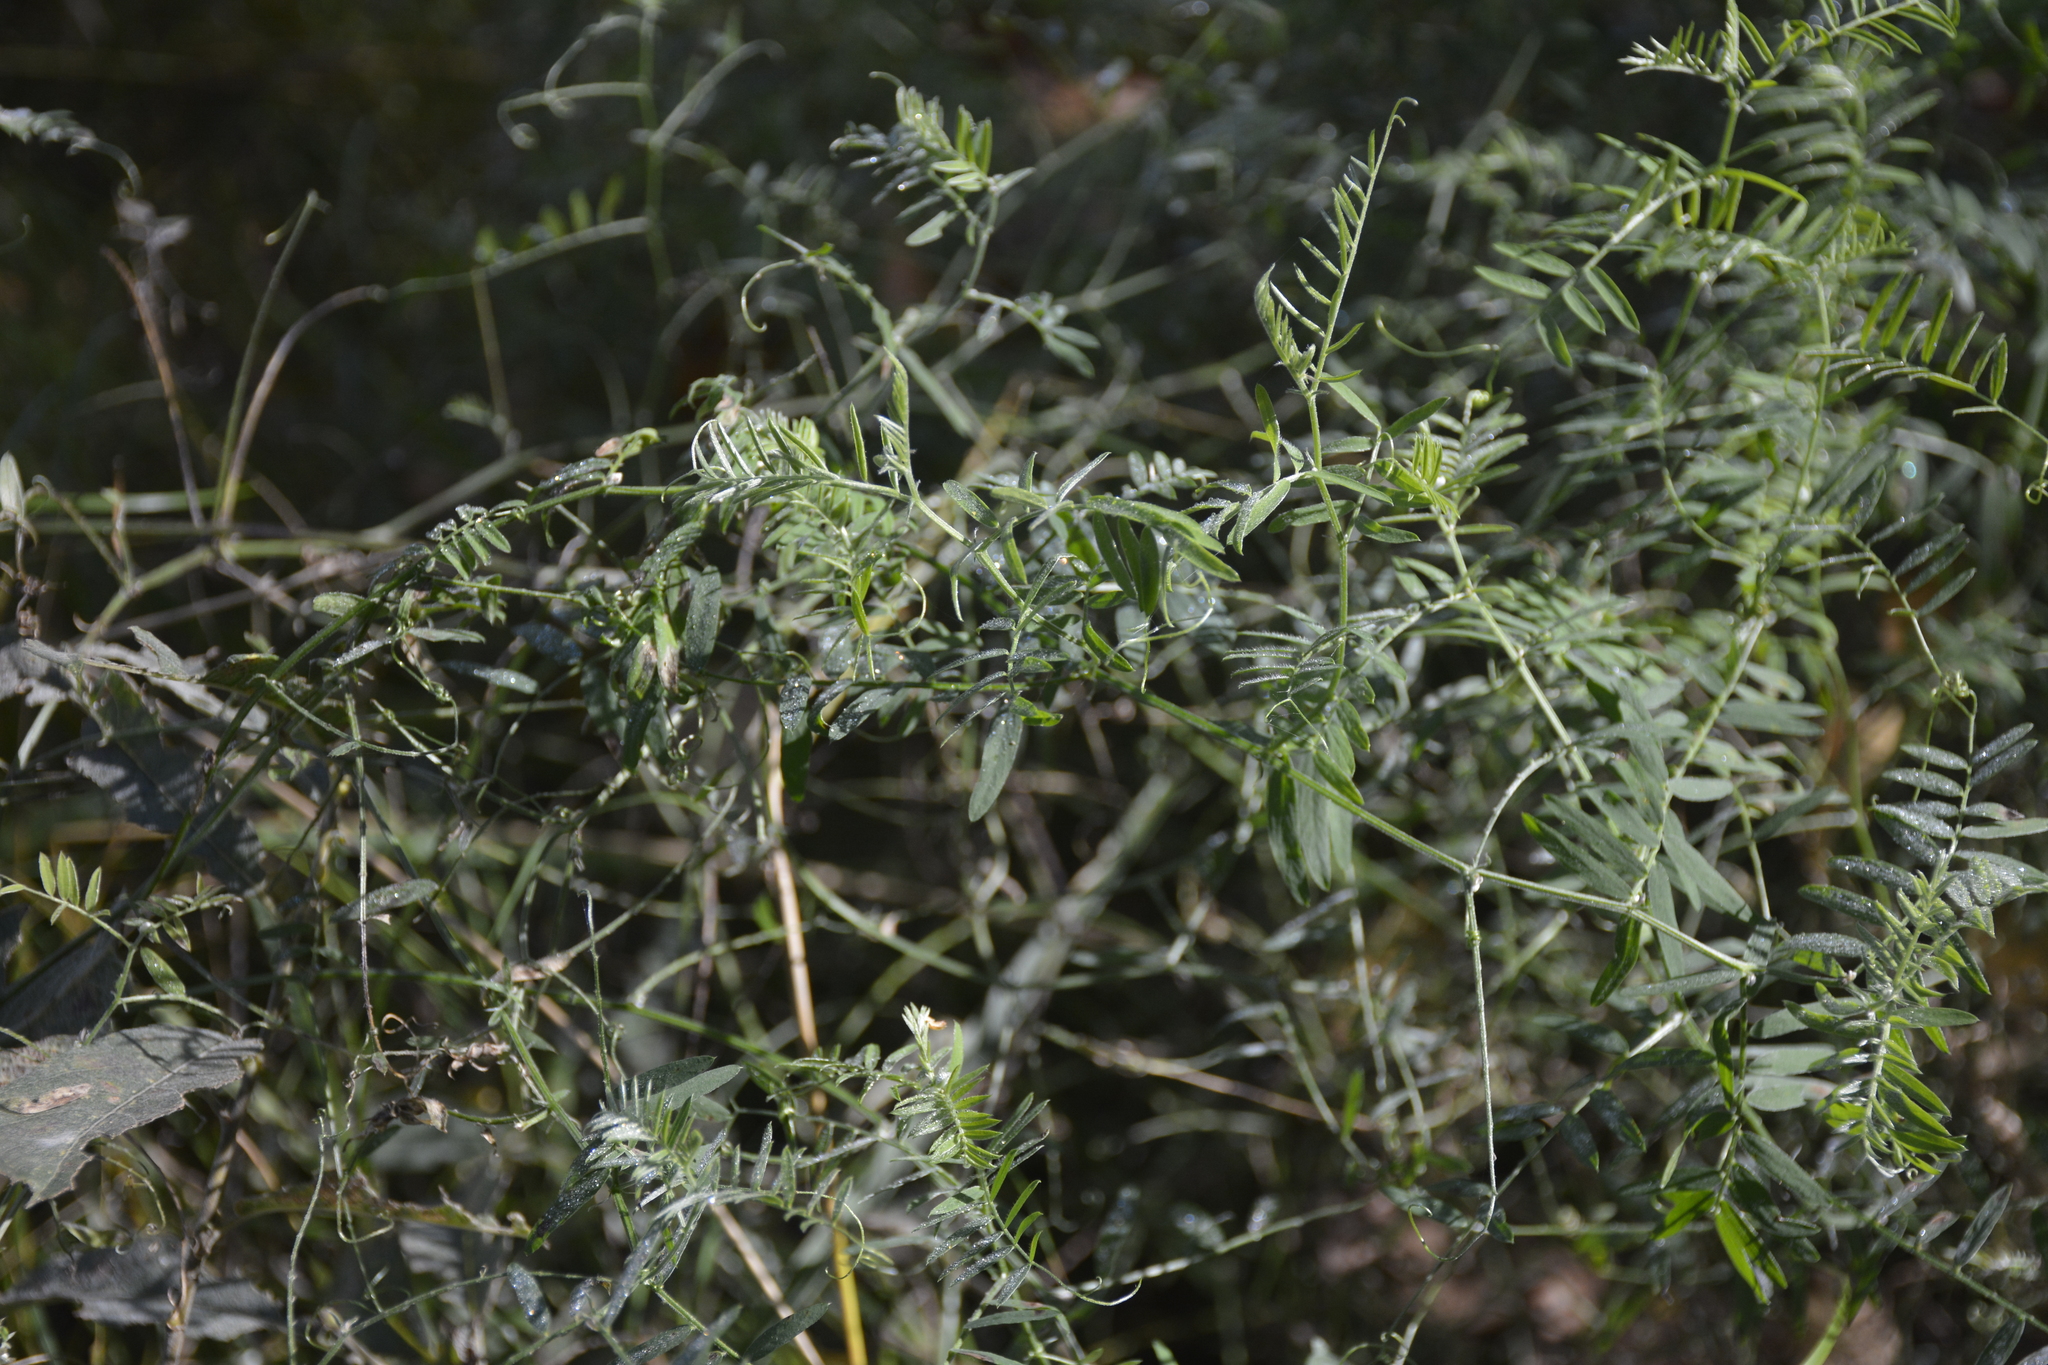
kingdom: Plantae
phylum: Tracheophyta
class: Magnoliopsida
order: Fabales
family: Fabaceae
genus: Vicia
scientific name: Vicia cracca
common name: Bird vetch
